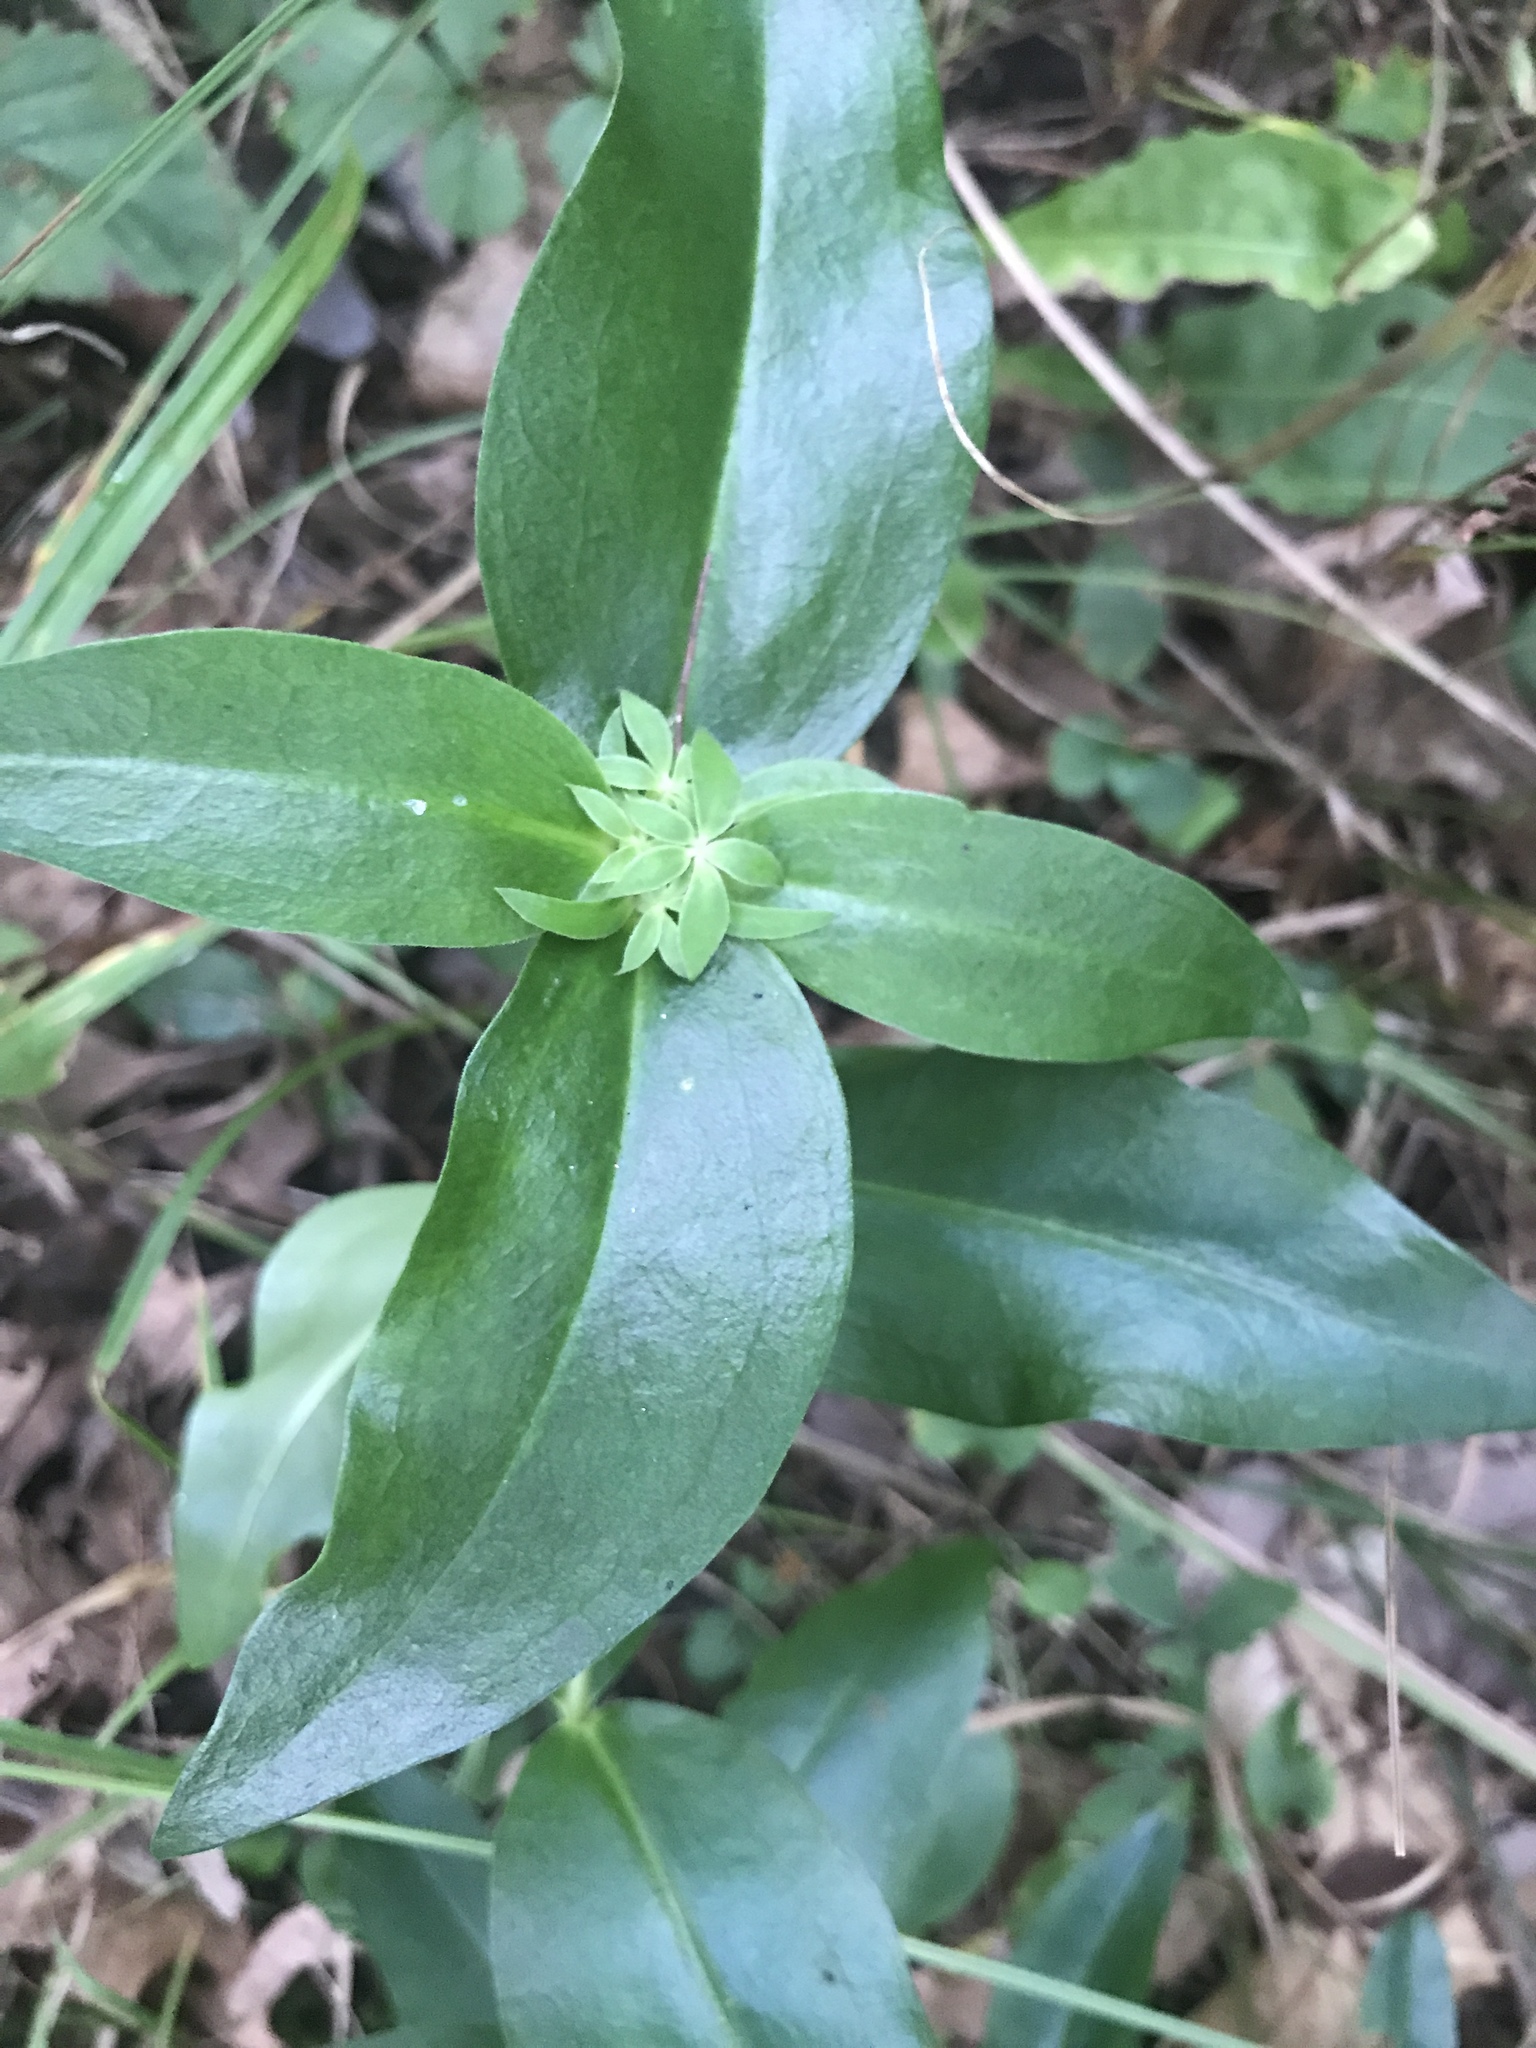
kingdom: Plantae
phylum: Tracheophyta
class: Magnoliopsida
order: Gentianales
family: Gentianaceae
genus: Gentiana
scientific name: Gentiana andrewsii
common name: Bottle gentian
